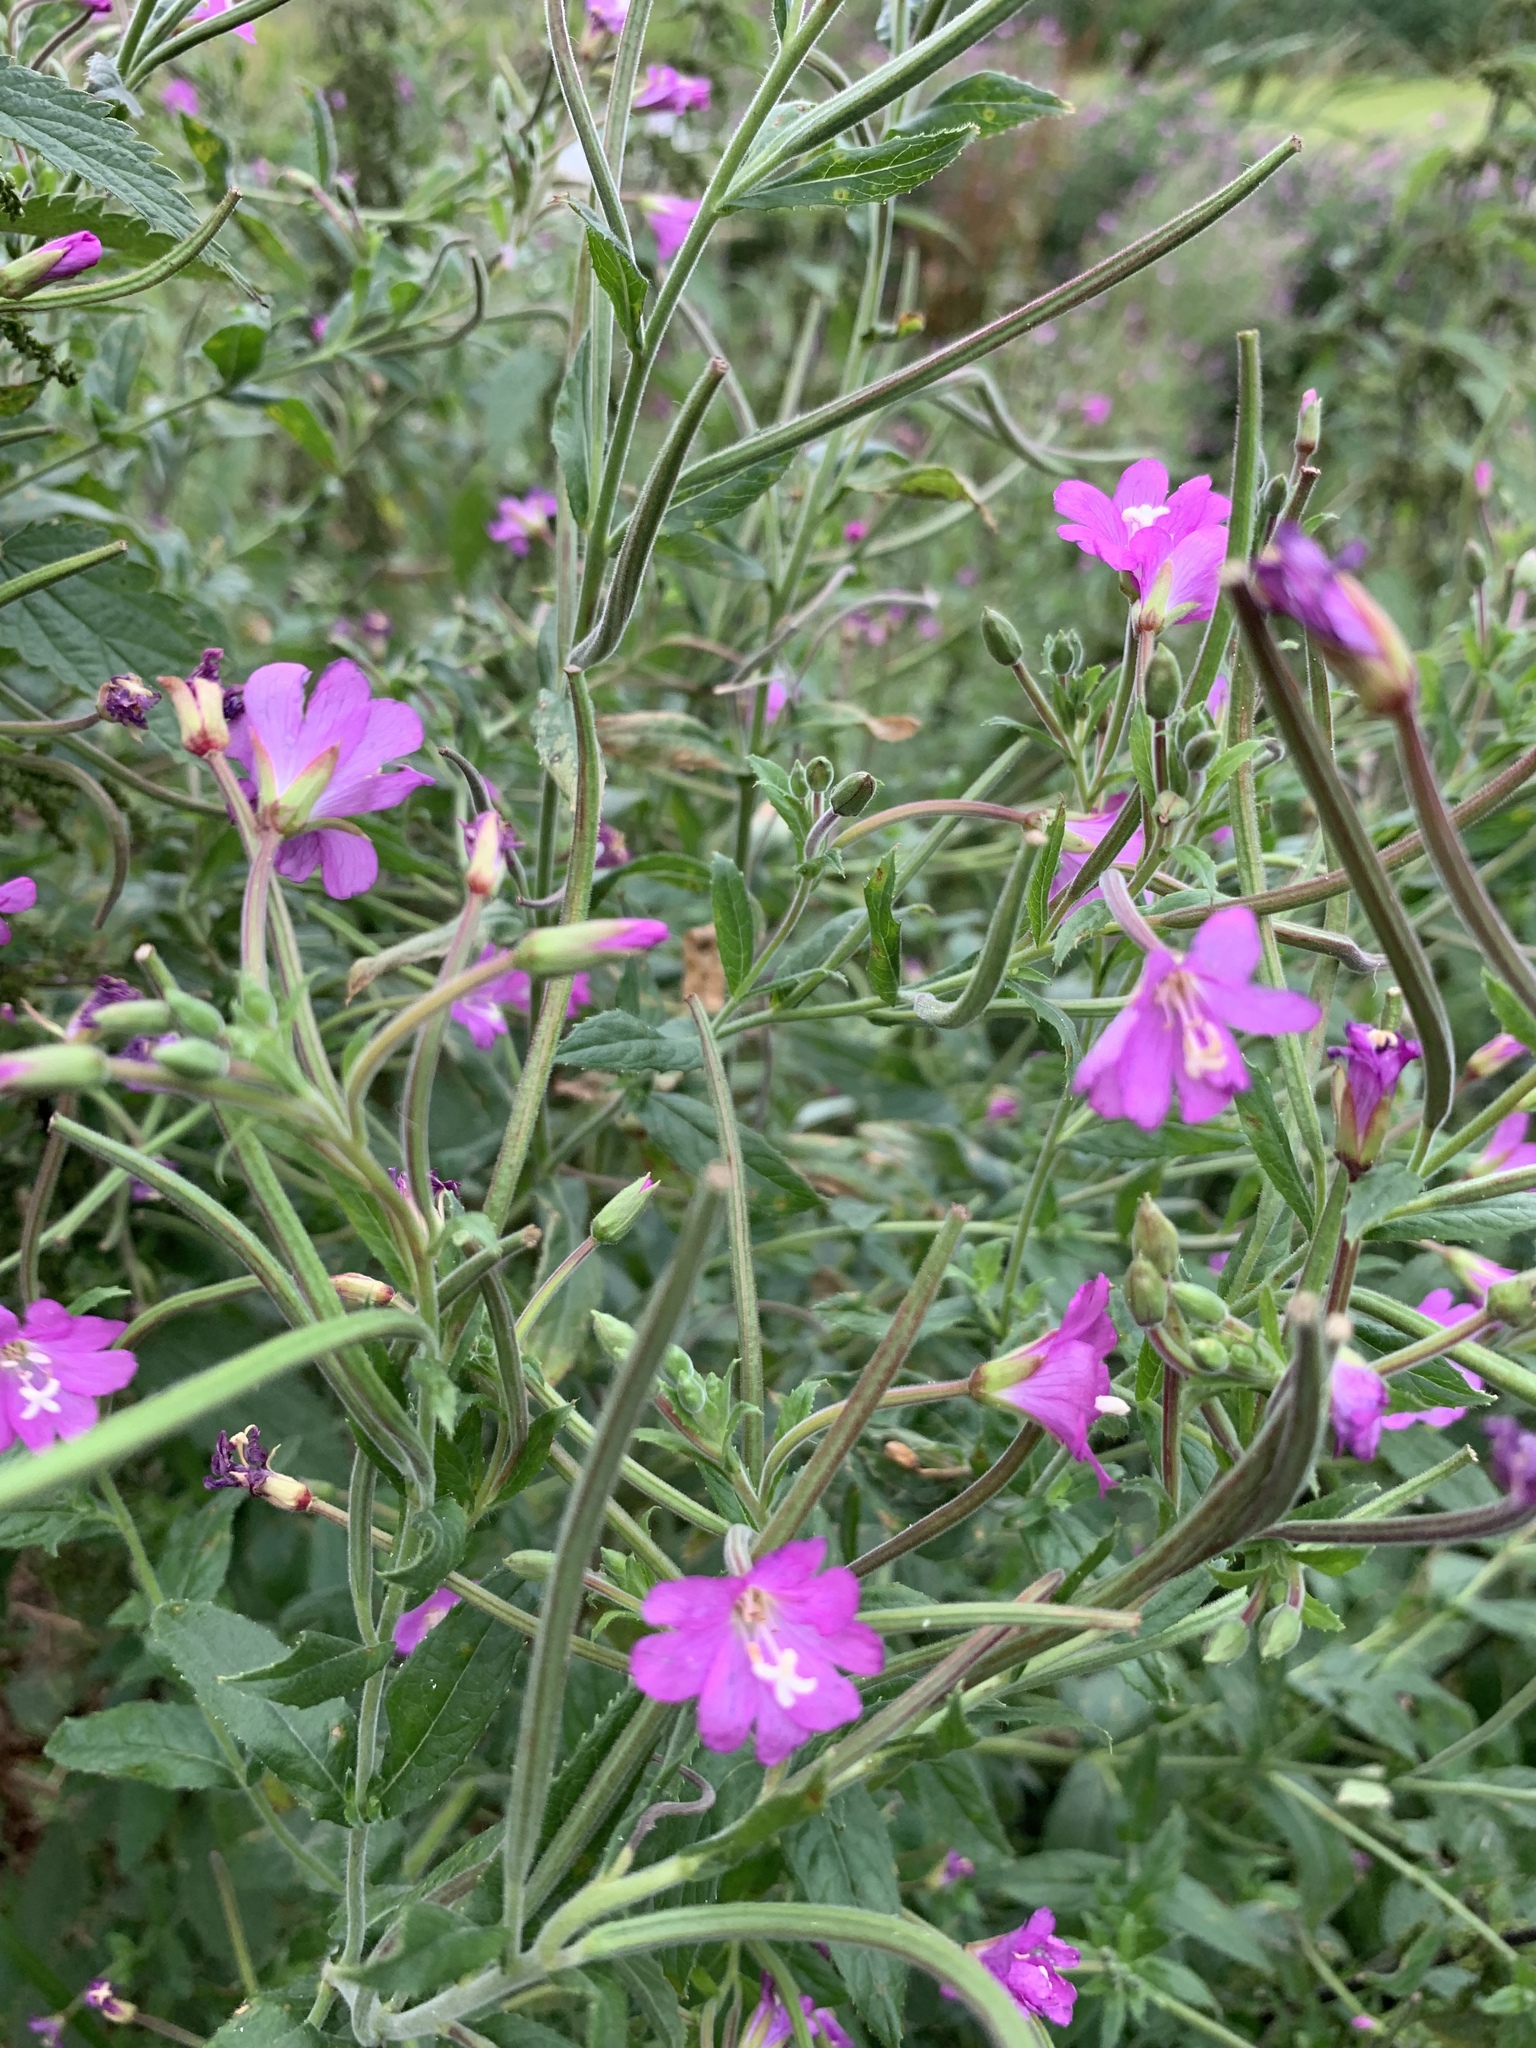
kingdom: Plantae
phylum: Tracheophyta
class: Magnoliopsida
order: Myrtales
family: Onagraceae
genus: Epilobium
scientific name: Epilobium hirsutum
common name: Great willowherb
